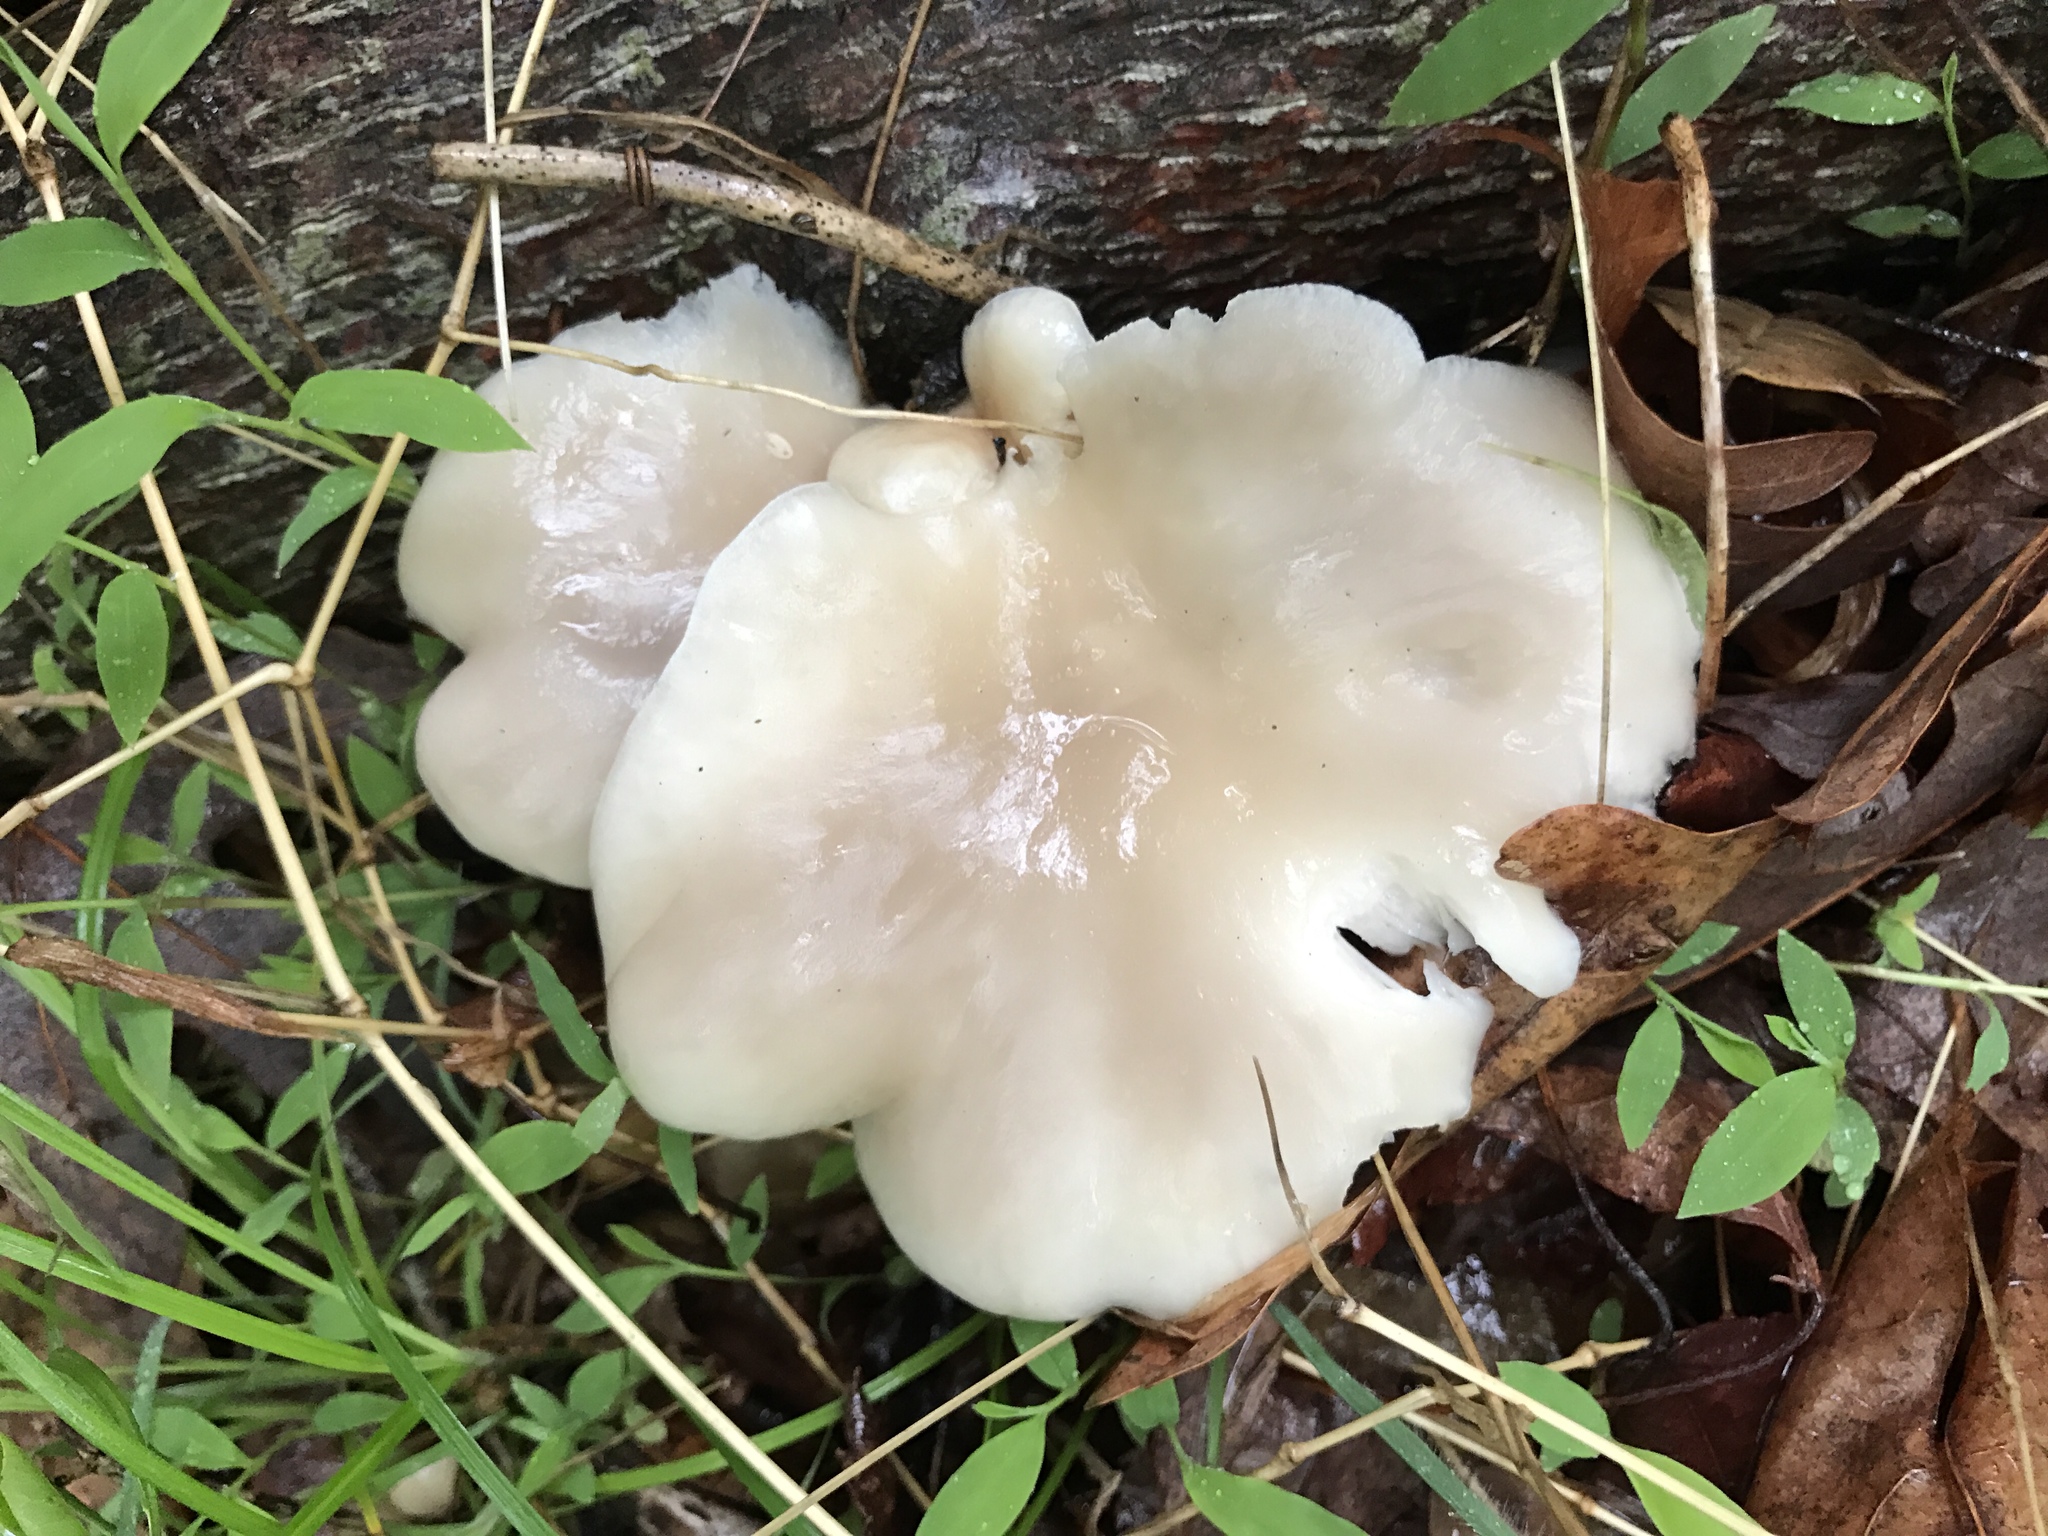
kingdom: Fungi
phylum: Basidiomycota
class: Agaricomycetes
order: Agaricales
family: Pleurotaceae
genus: Pleurotus
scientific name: Pleurotus ostreatus
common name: Oyster mushroom
